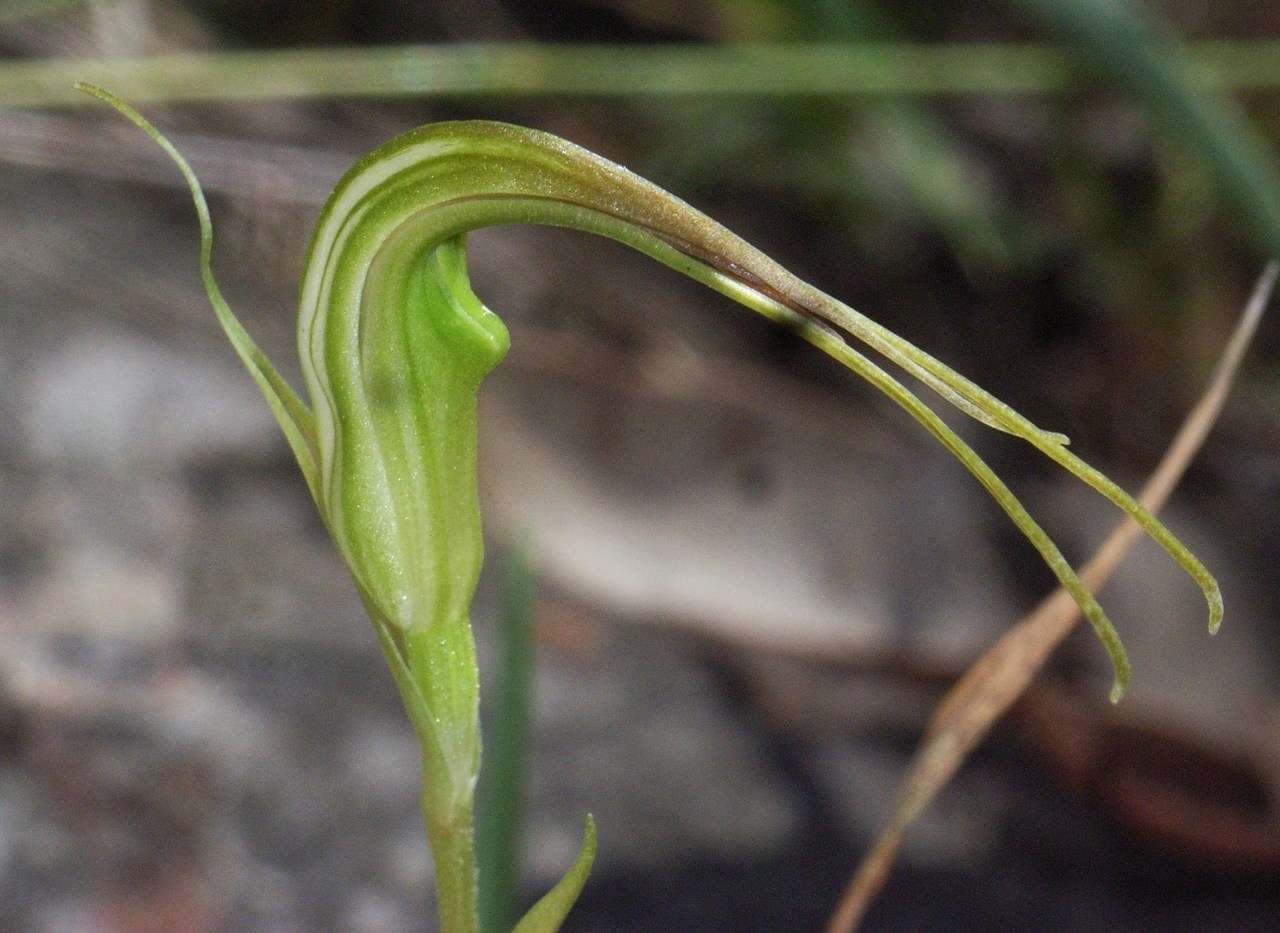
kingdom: Plantae
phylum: Tracheophyta
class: Liliopsida
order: Asparagales
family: Orchidaceae
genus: Pterostylis
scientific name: Pterostylis decurva
